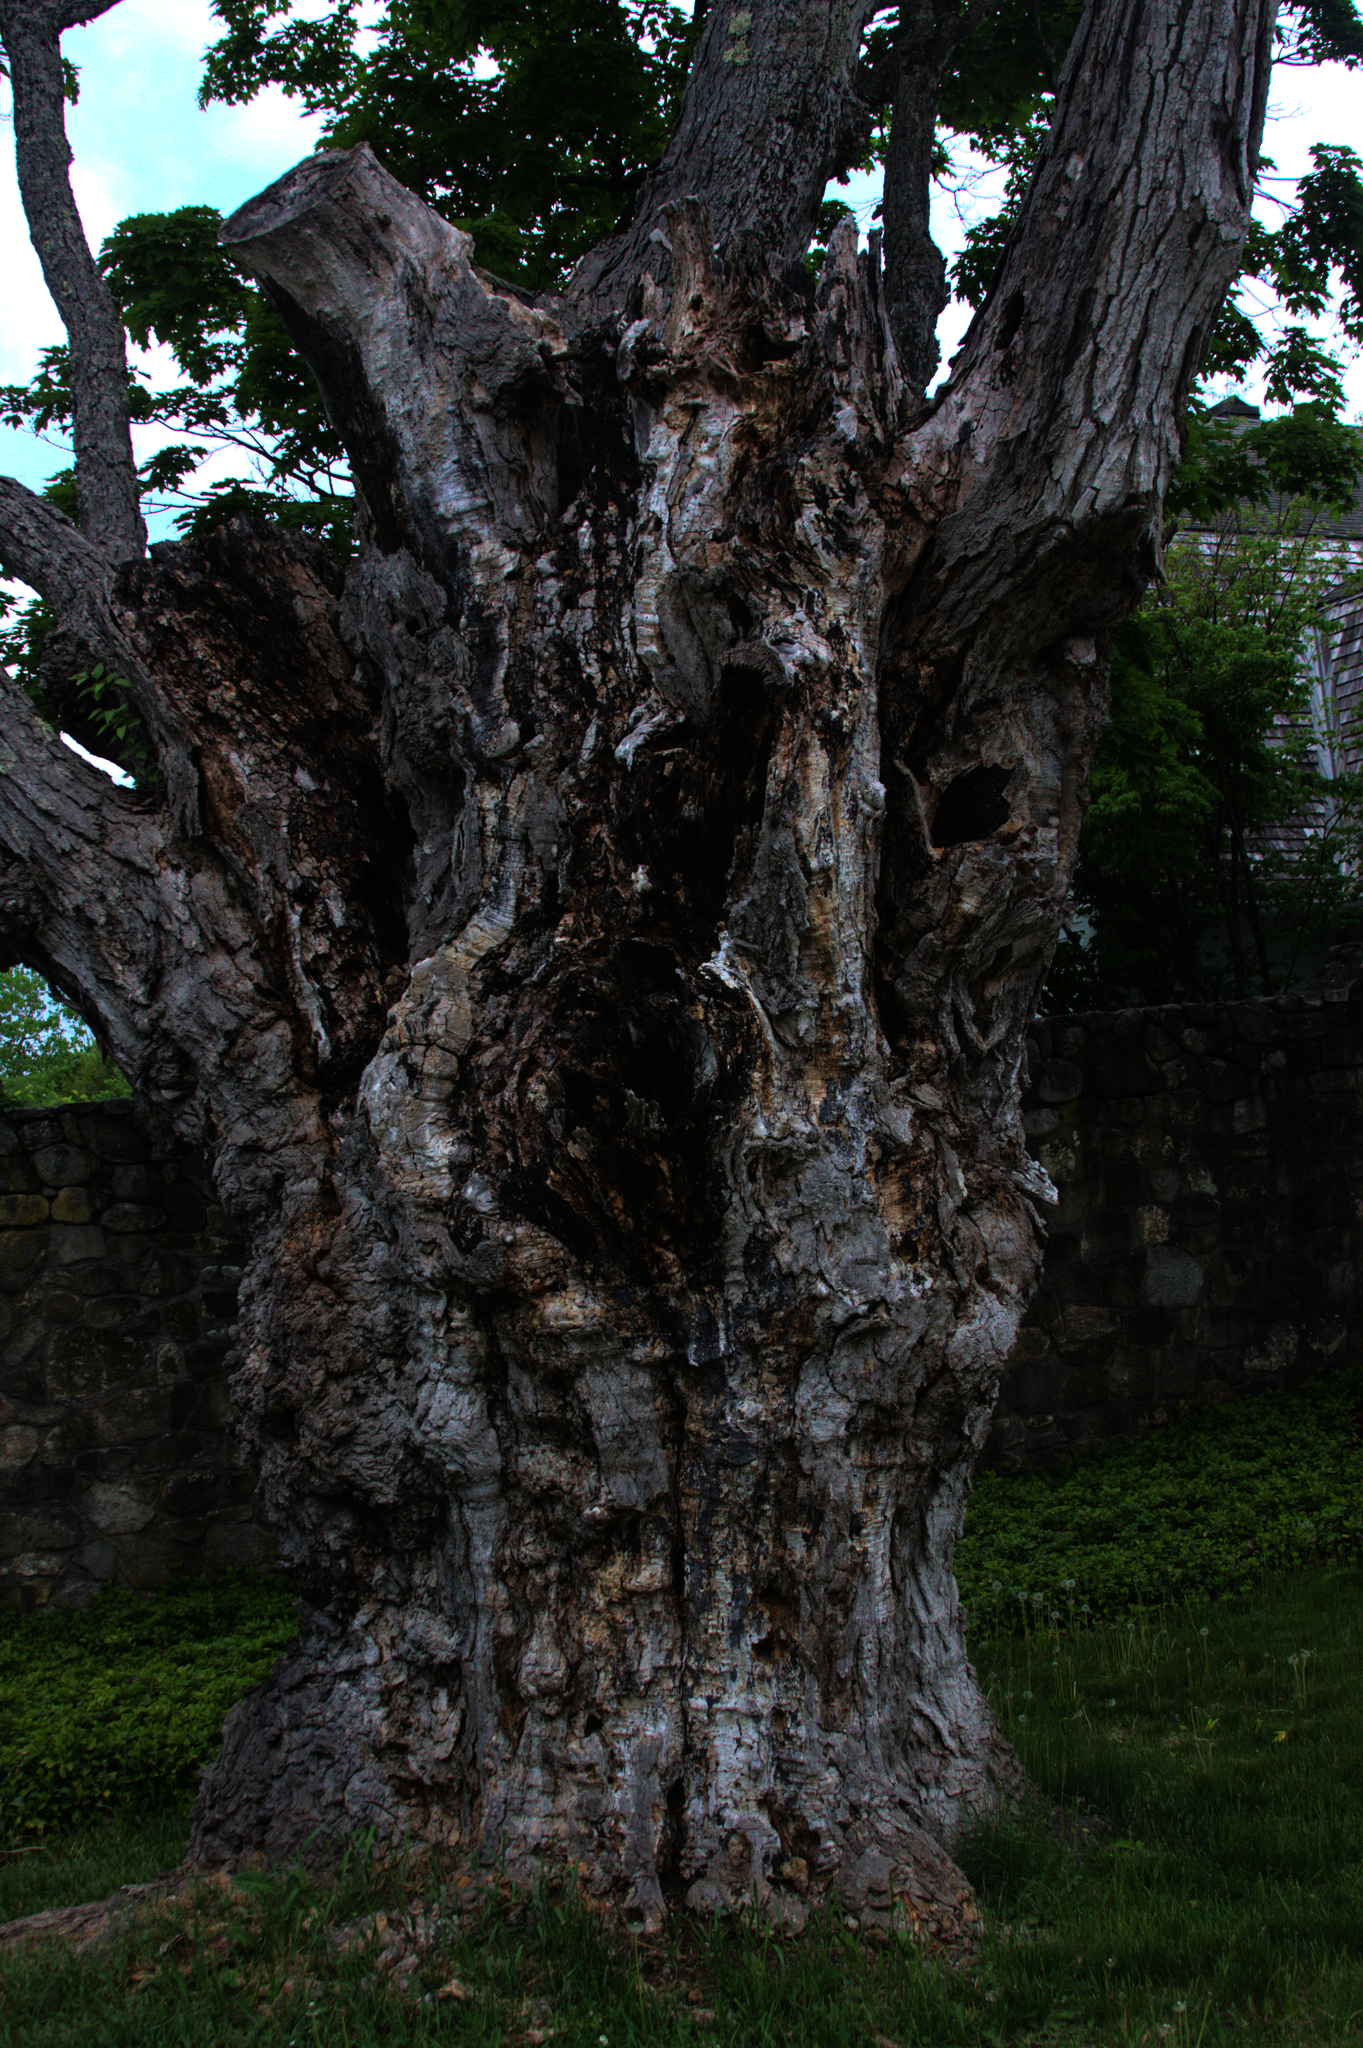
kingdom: Plantae
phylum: Tracheophyta
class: Magnoliopsida
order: Sapindales
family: Sapindaceae
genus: Acer
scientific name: Acer saccharum
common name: Sugar maple
